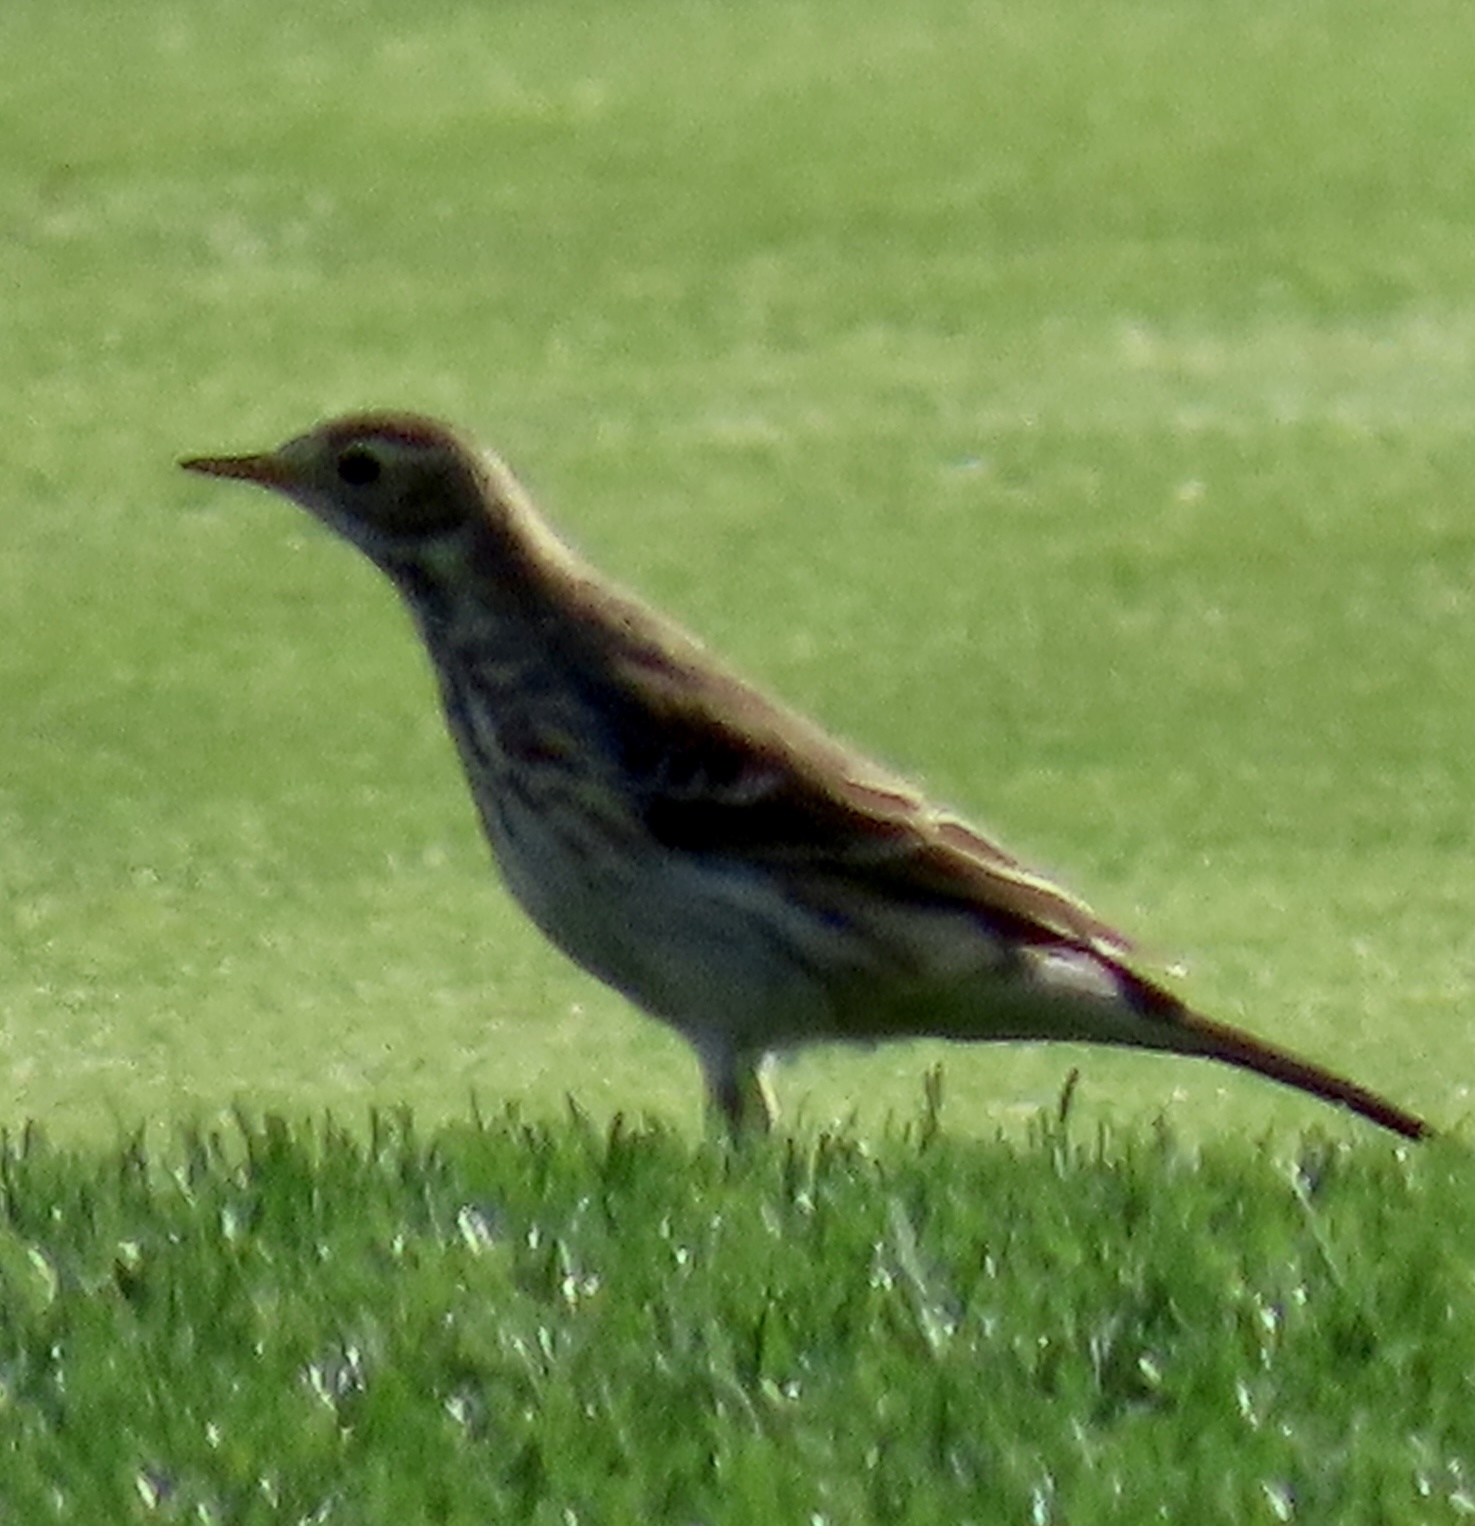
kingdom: Animalia
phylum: Chordata
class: Aves
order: Passeriformes
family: Motacillidae
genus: Anthus
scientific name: Anthus rubescens
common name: Buff-bellied pipit
